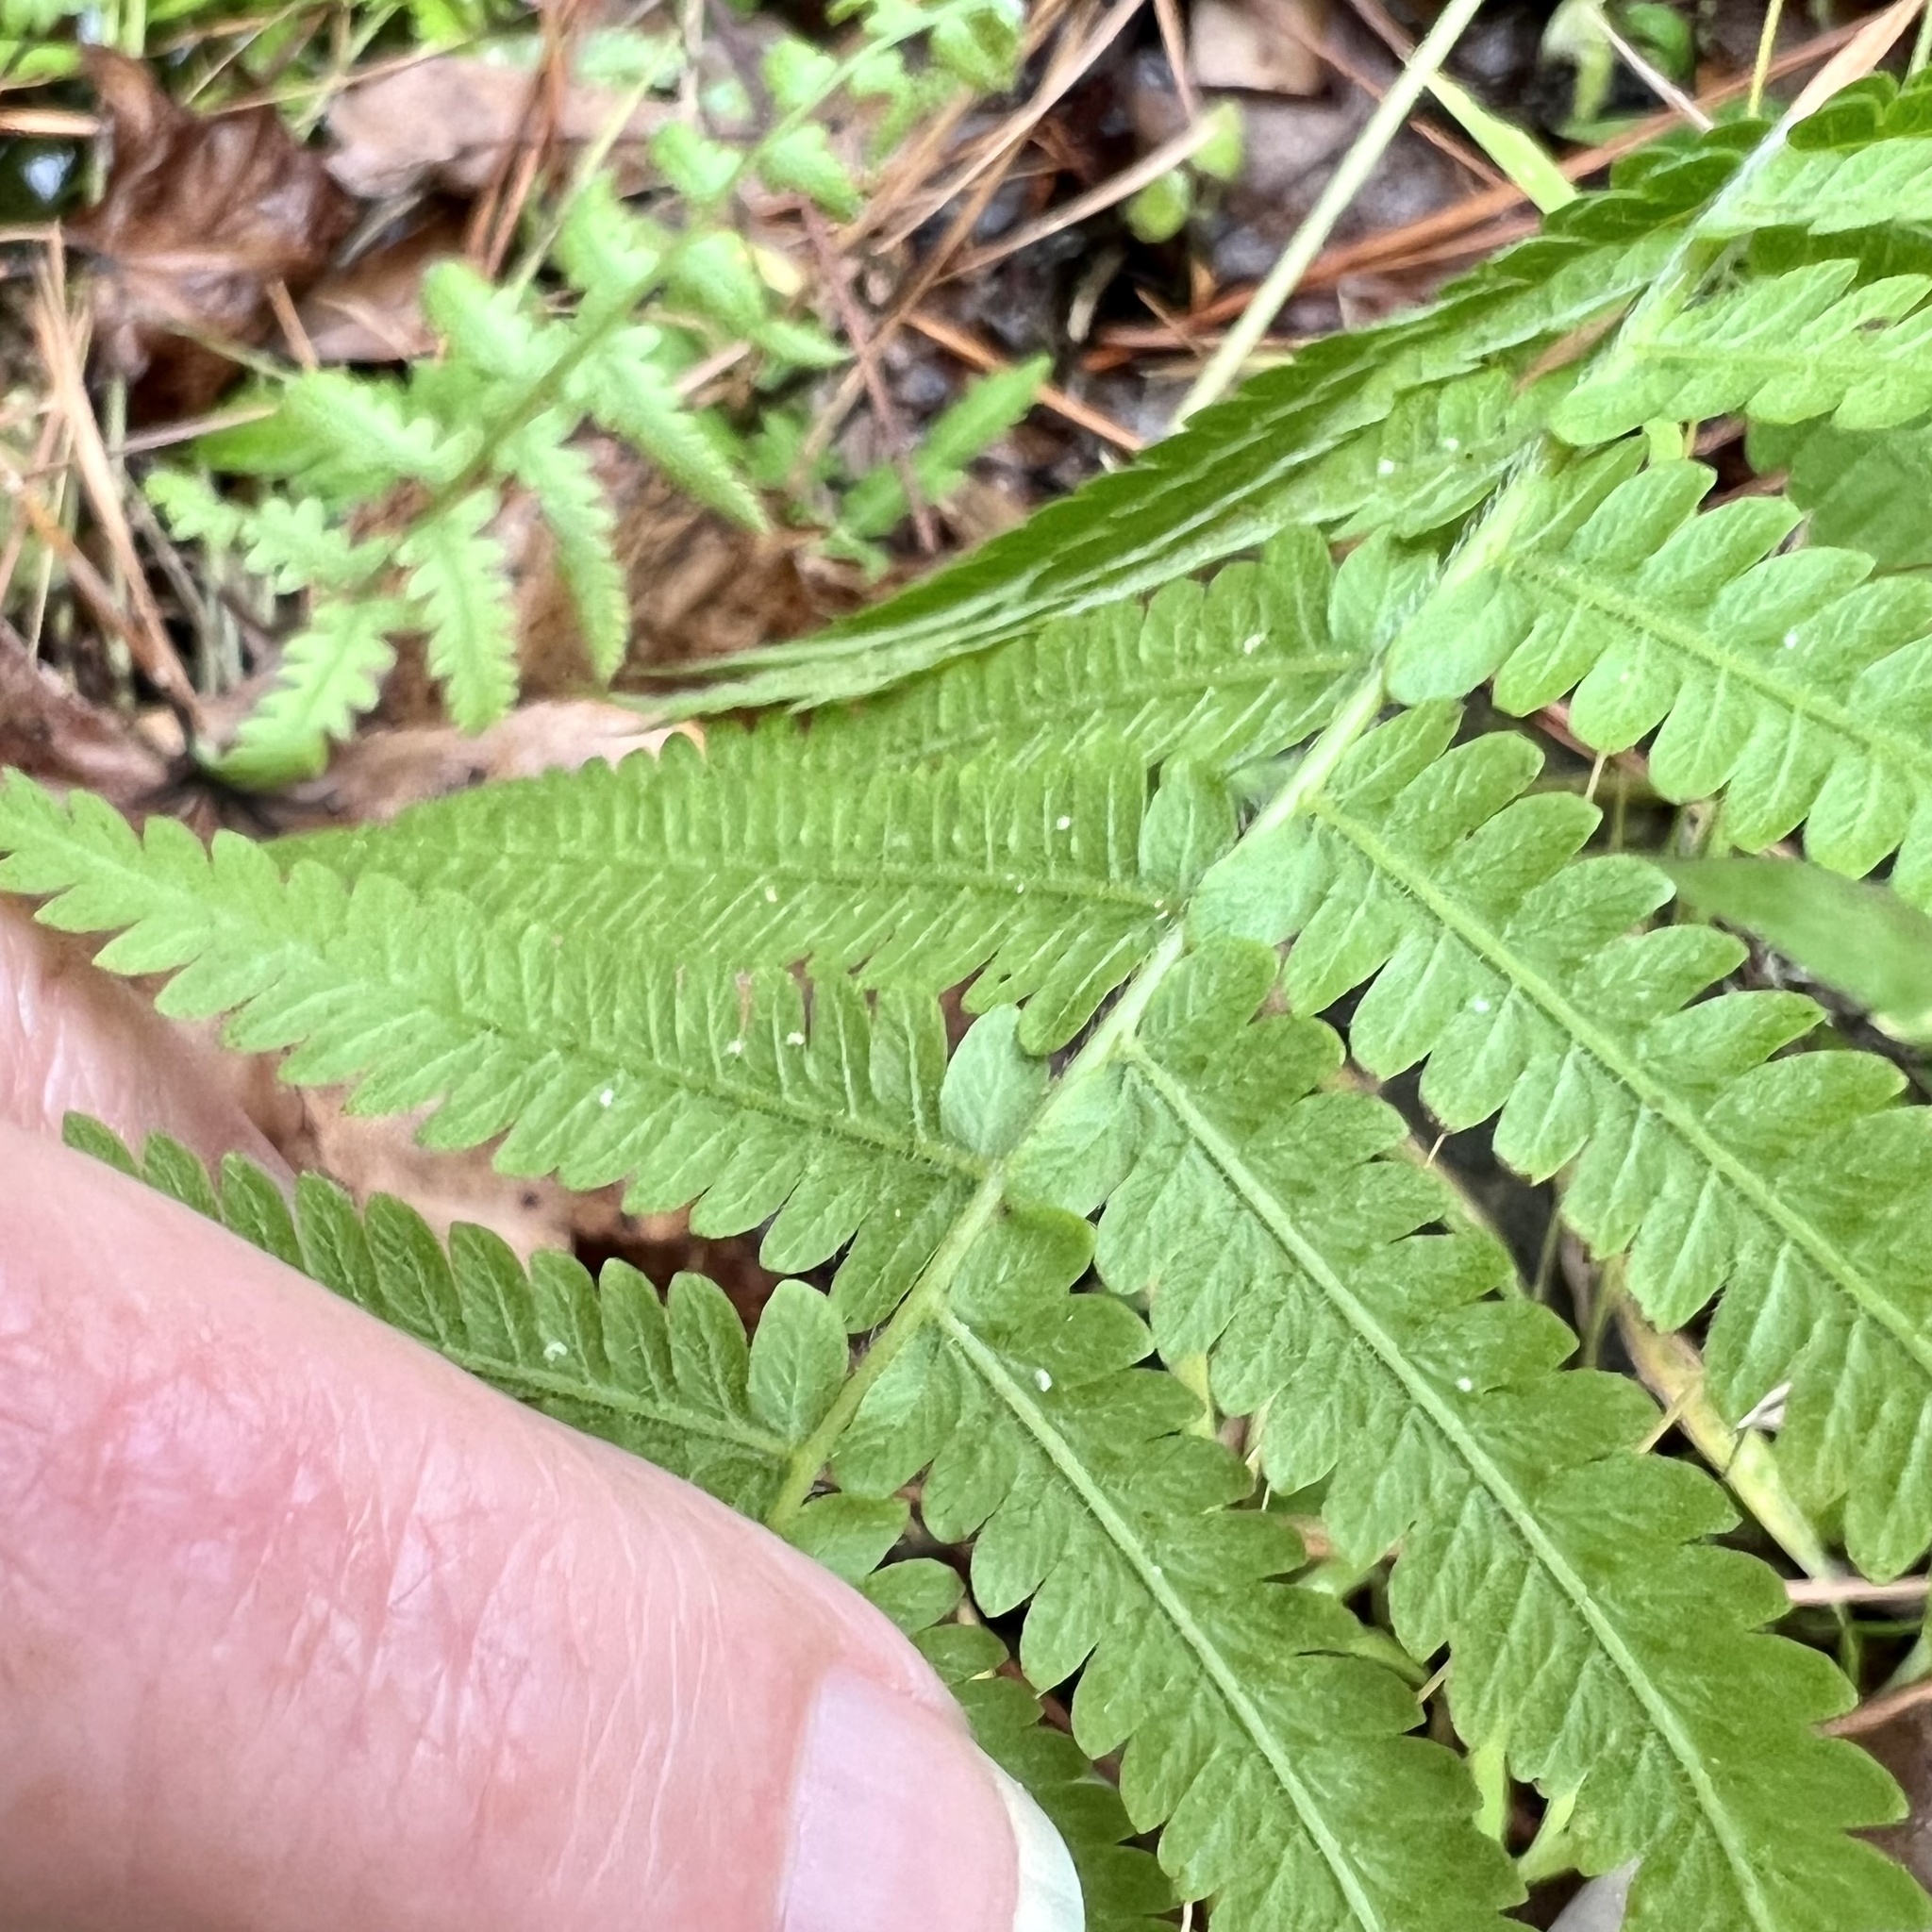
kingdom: Plantae
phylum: Tracheophyta
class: Polypodiopsida
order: Polypodiales
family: Thelypteridaceae
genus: Phegopteris
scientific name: Phegopteris hexagonoptera
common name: Broad beech fern
